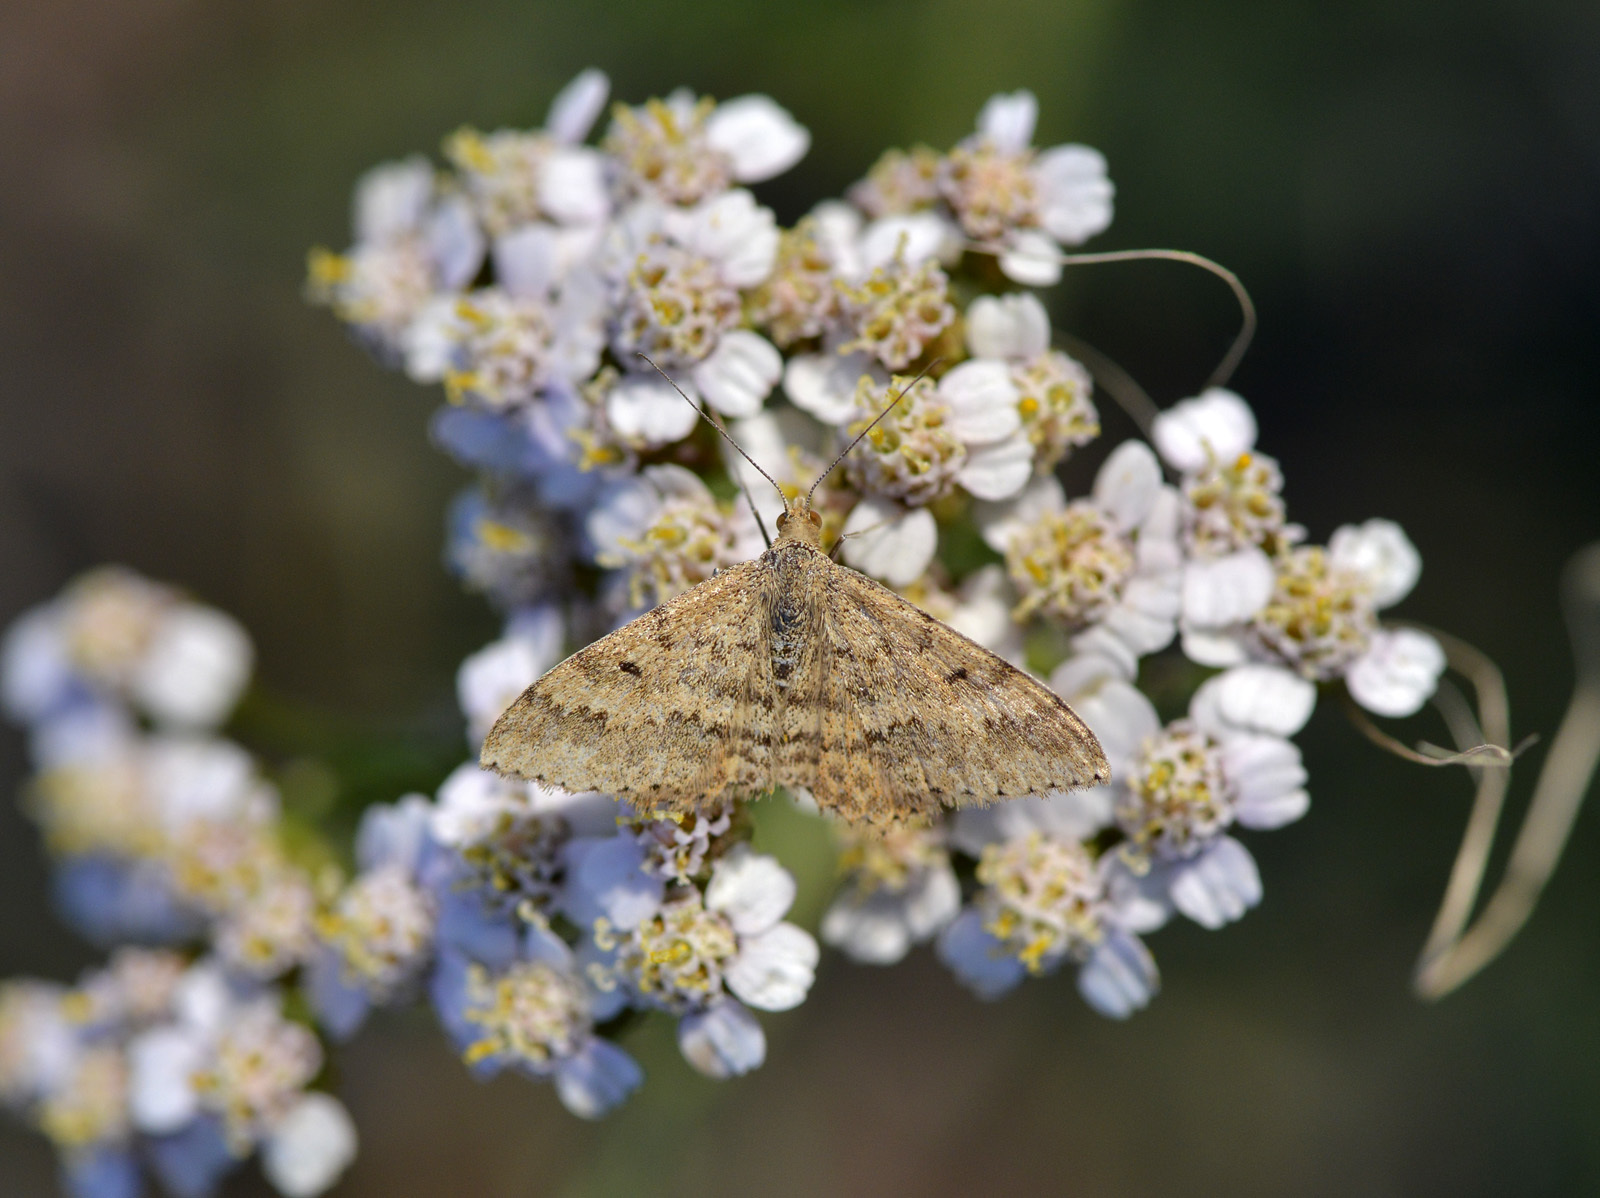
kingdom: Animalia
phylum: Arthropoda
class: Insecta
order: Lepidoptera
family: Geometridae
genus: Scopula
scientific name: Scopula rubraria
